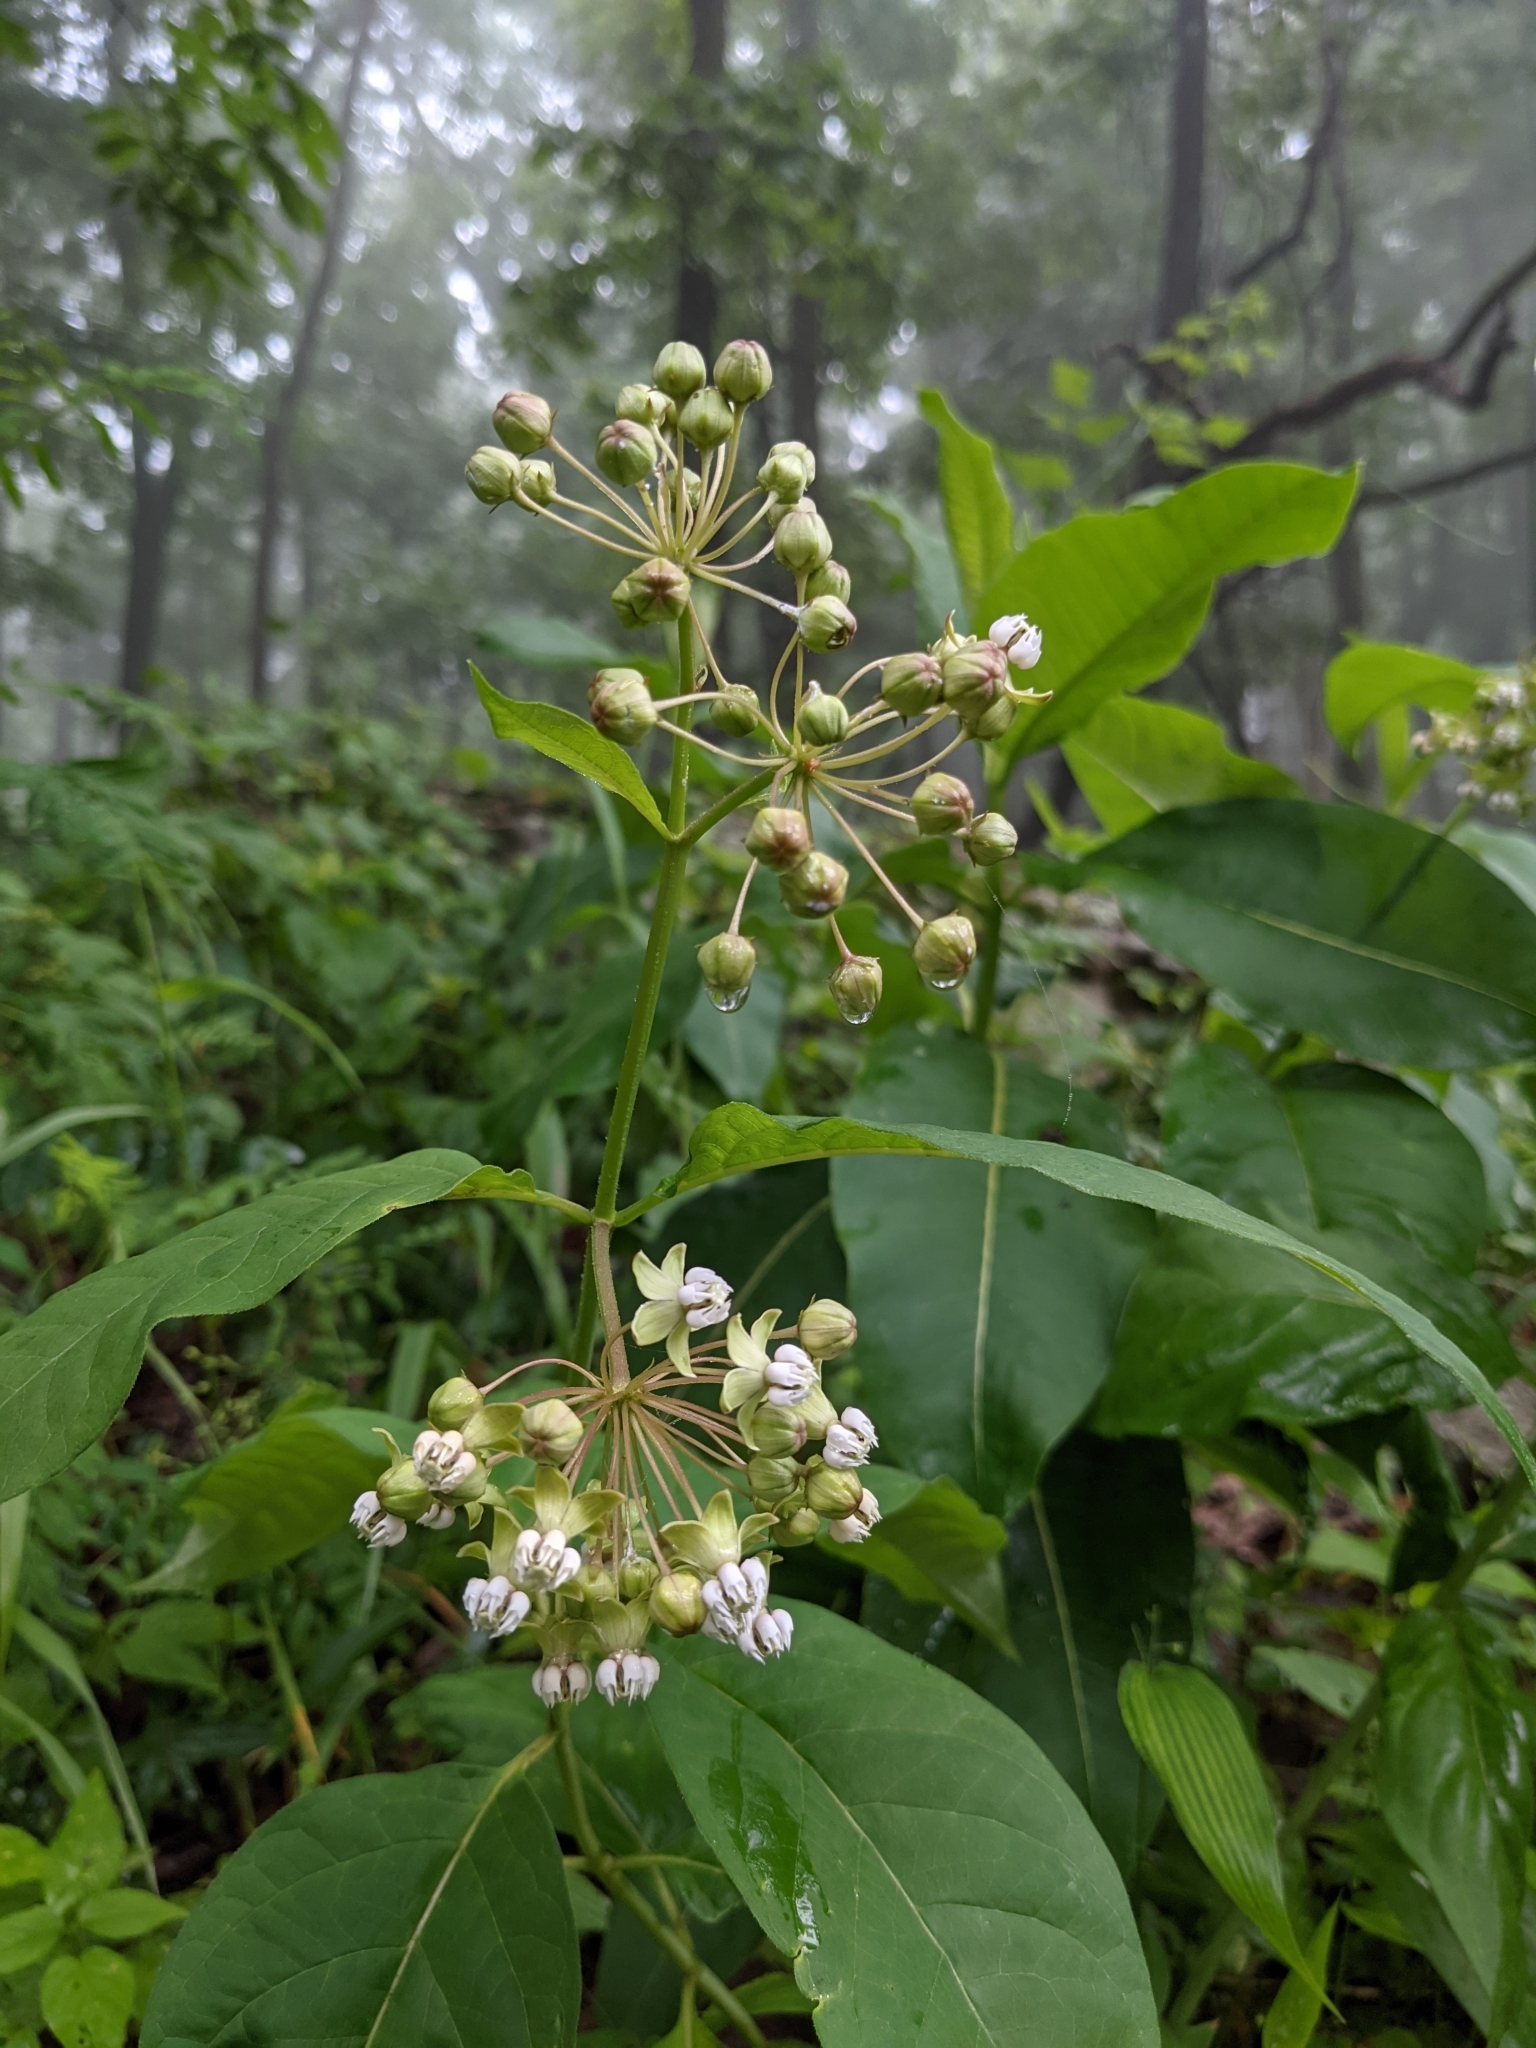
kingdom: Plantae
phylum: Tracheophyta
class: Magnoliopsida
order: Gentianales
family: Apocynaceae
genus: Asclepias
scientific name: Asclepias exaltata
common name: Poke milkweed
